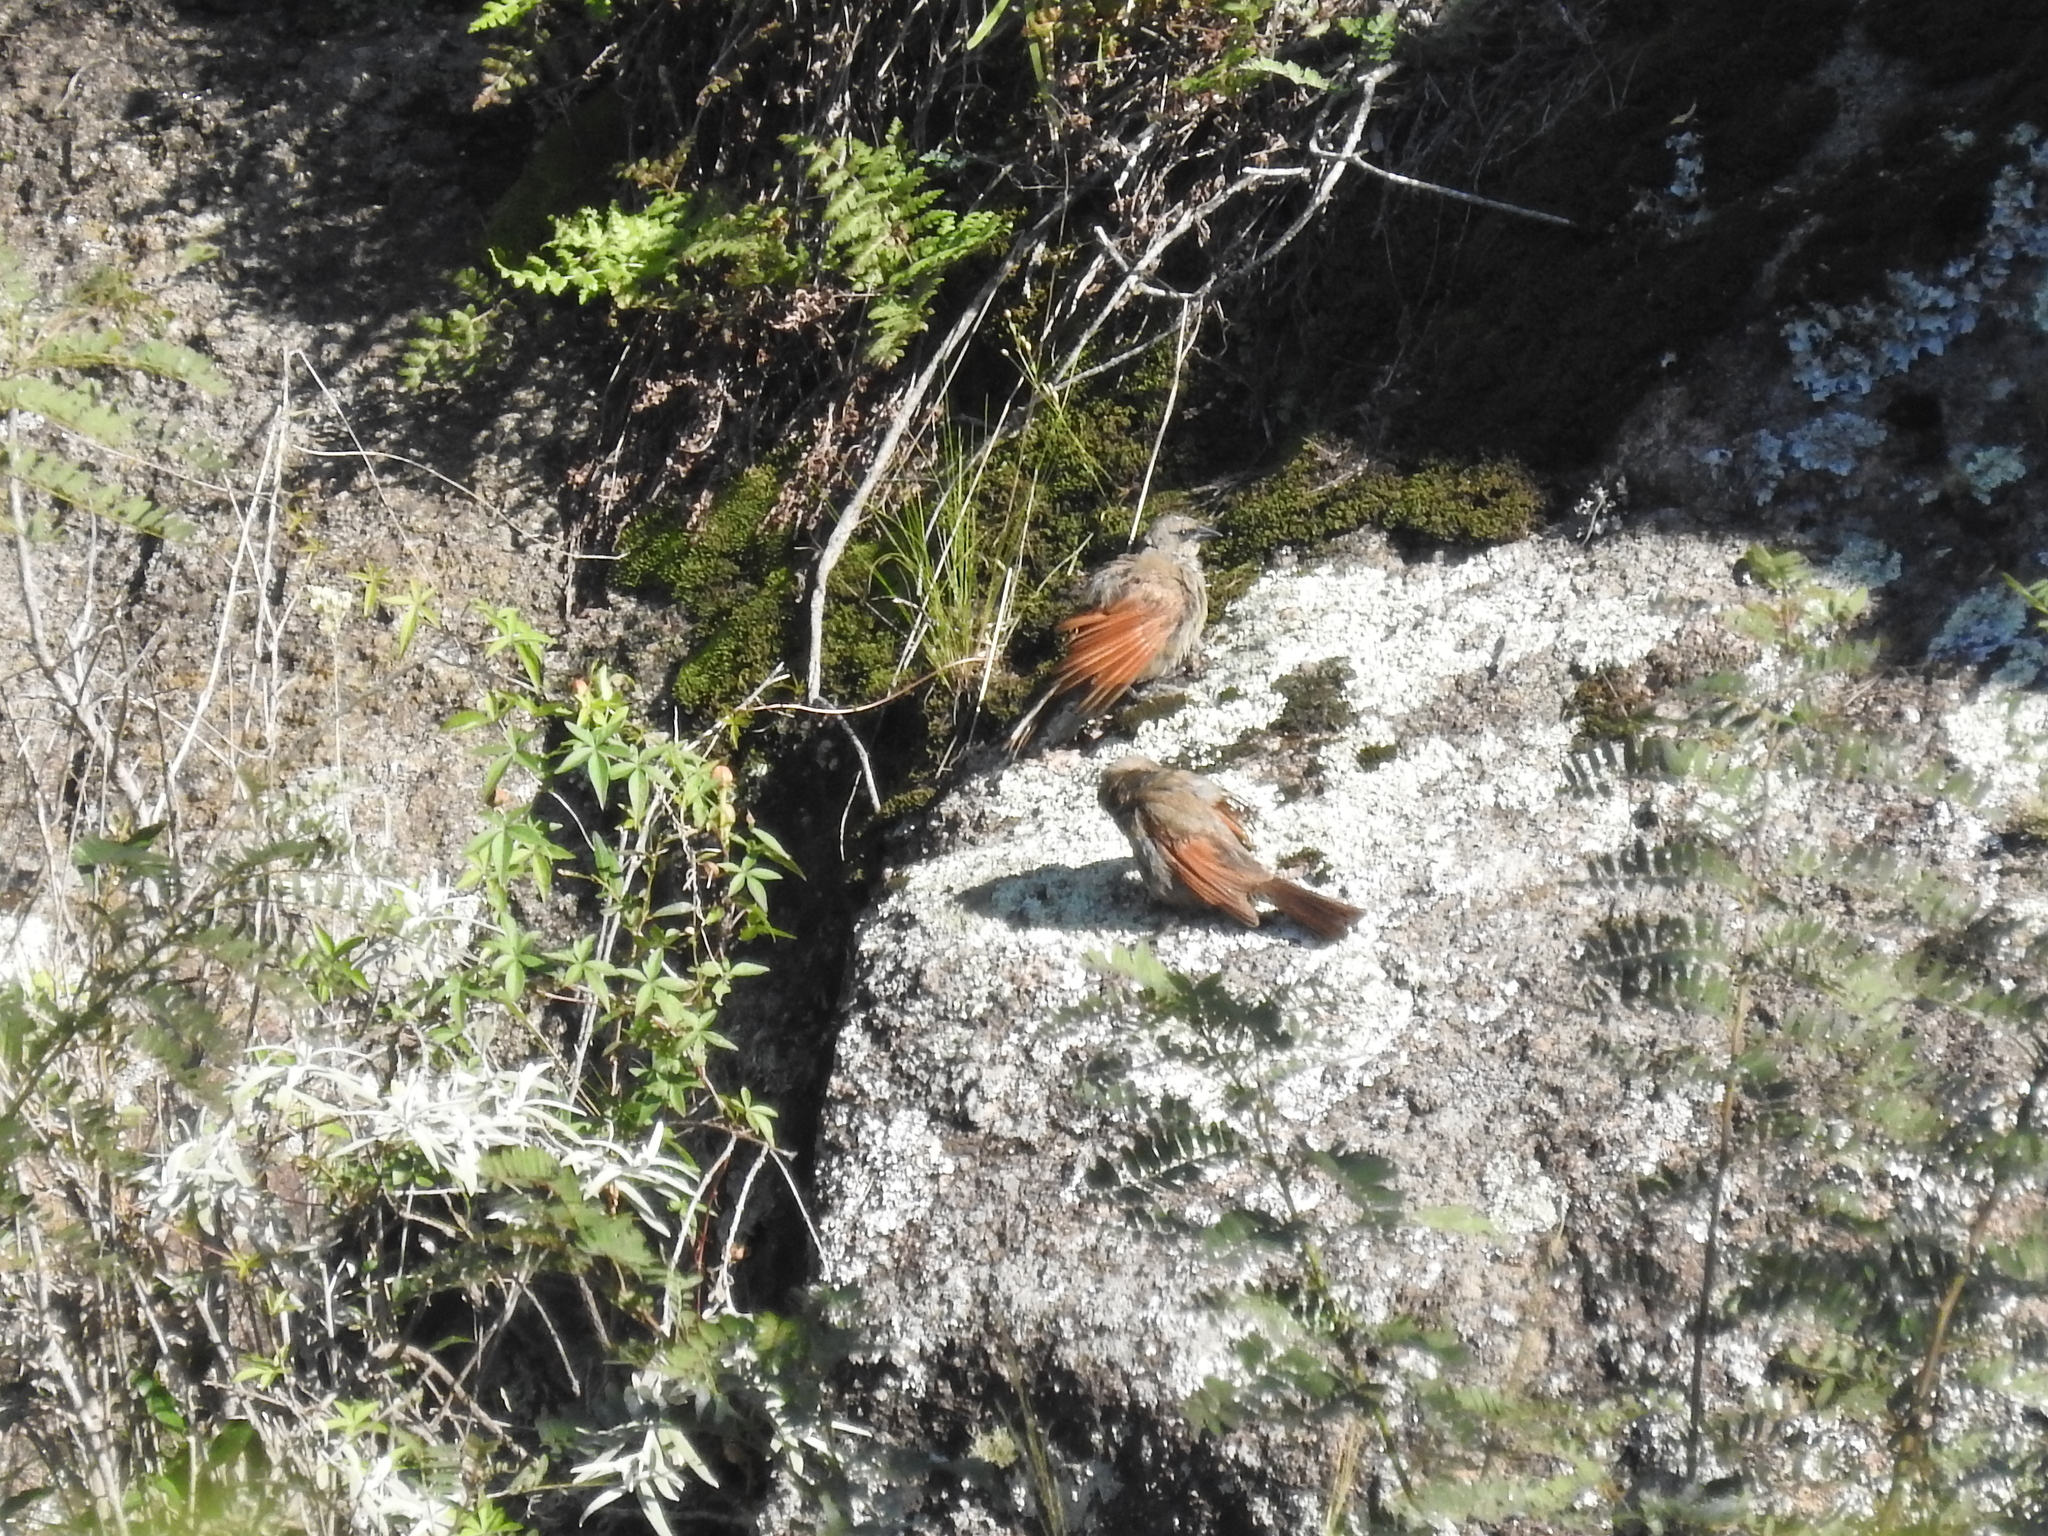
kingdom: Animalia
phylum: Chordata
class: Aves
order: Passeriformes
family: Icteridae
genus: Agelaioides
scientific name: Agelaioides badius
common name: Baywing
